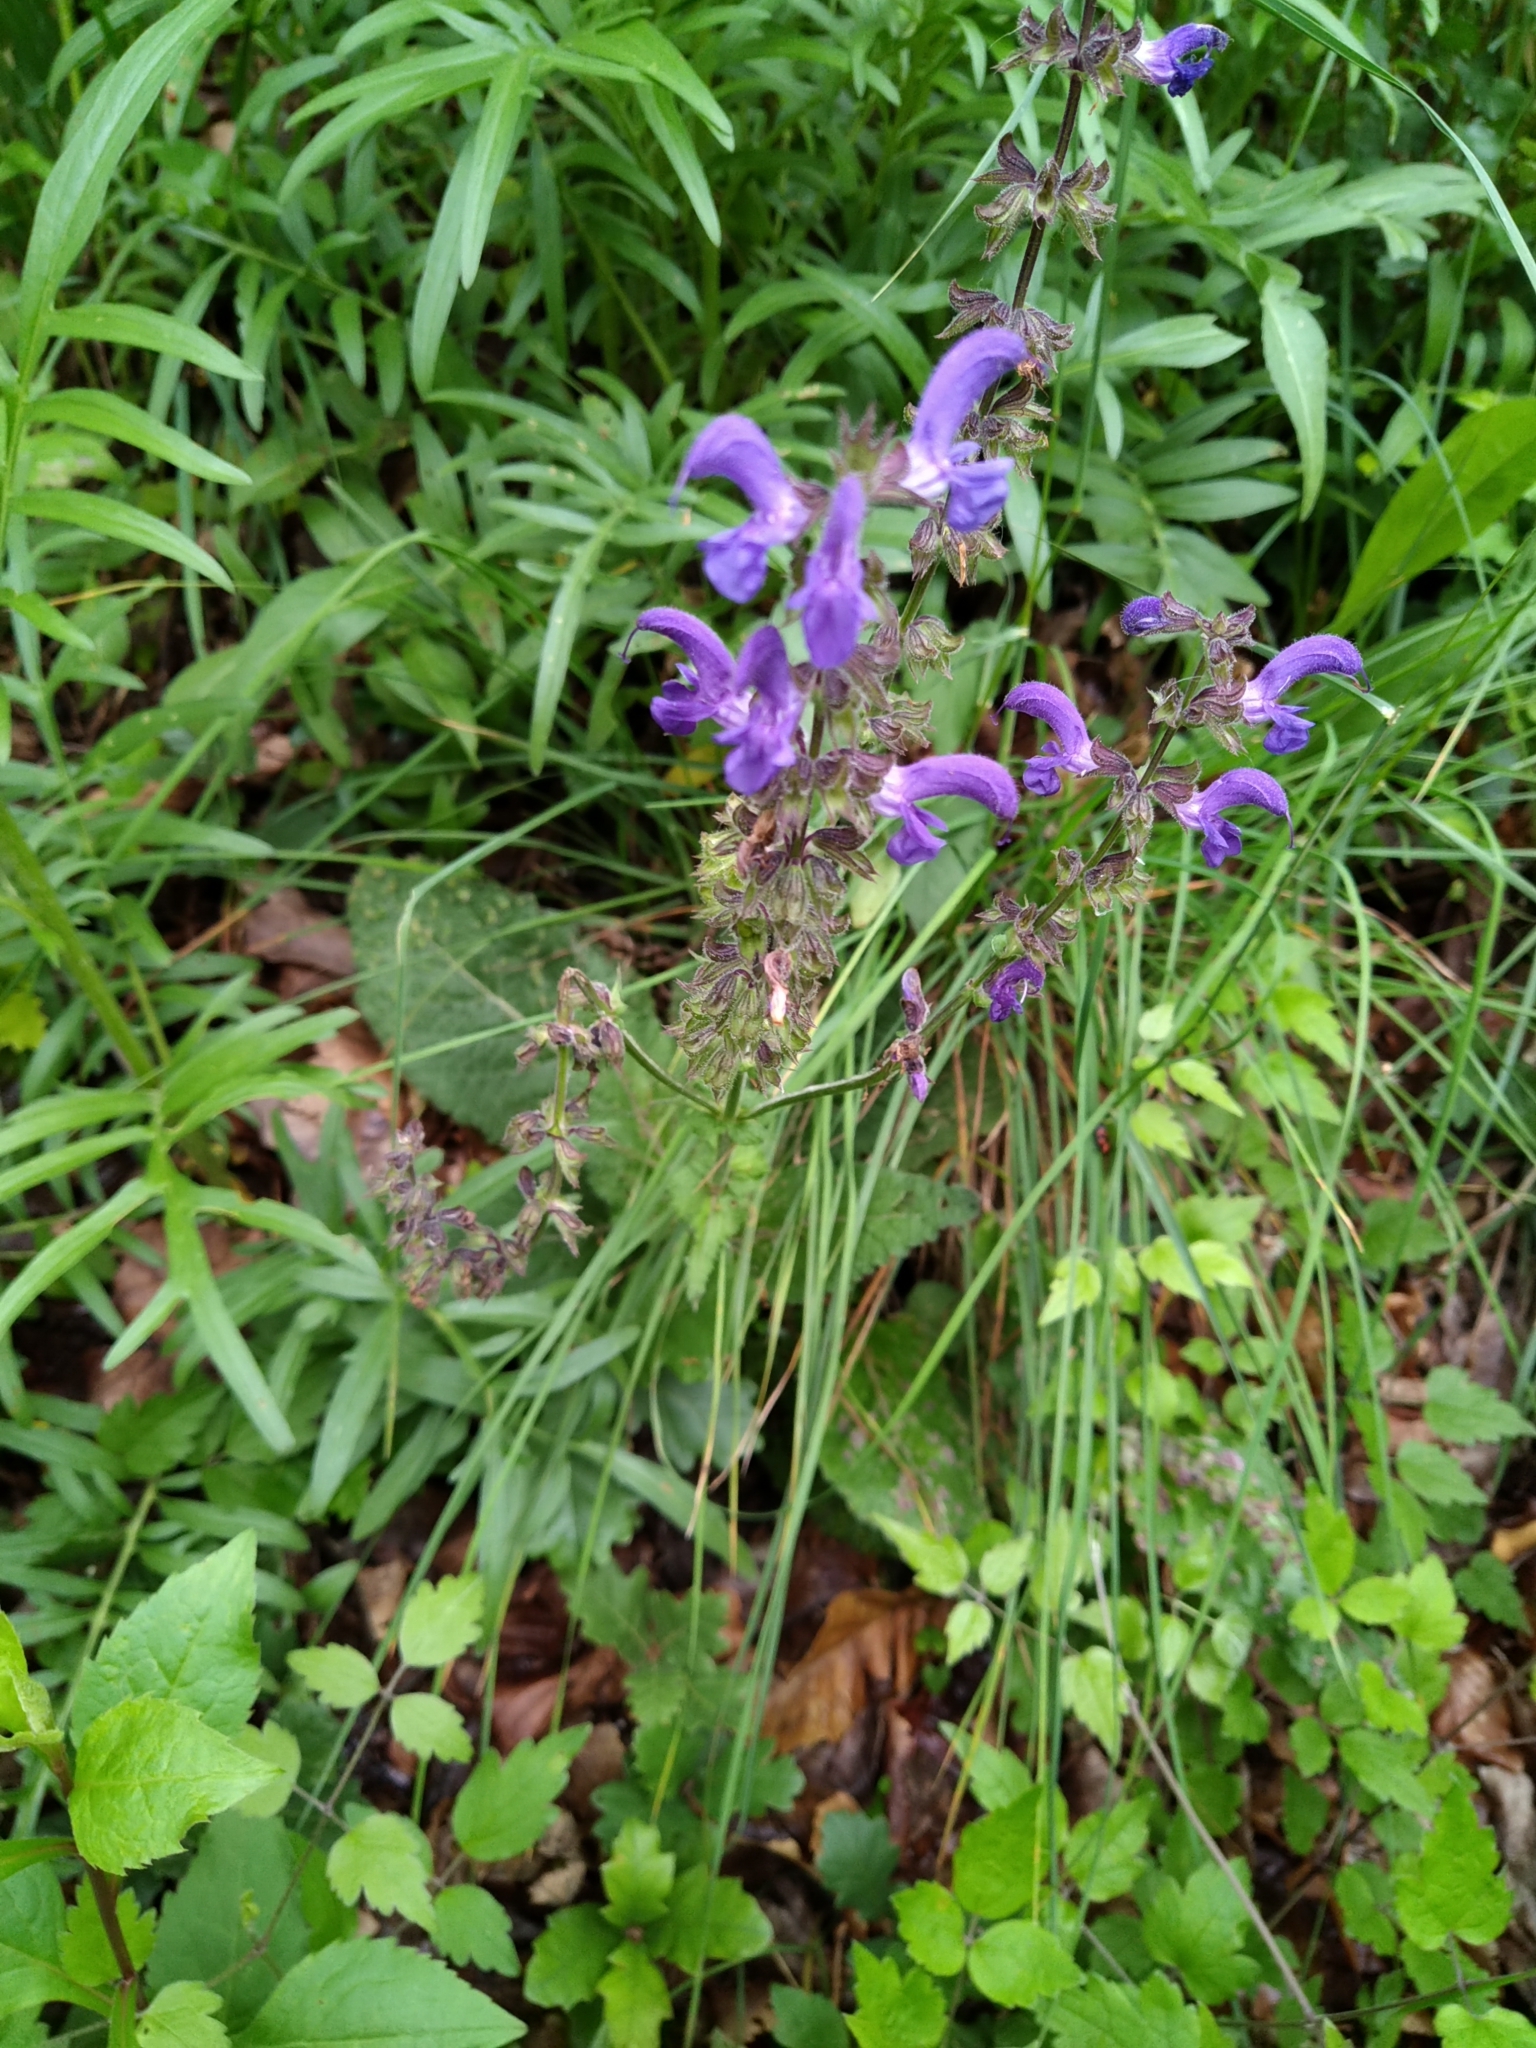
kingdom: Plantae
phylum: Tracheophyta
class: Magnoliopsida
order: Lamiales
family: Lamiaceae
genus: Salvia
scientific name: Salvia pratensis
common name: Meadow sage
